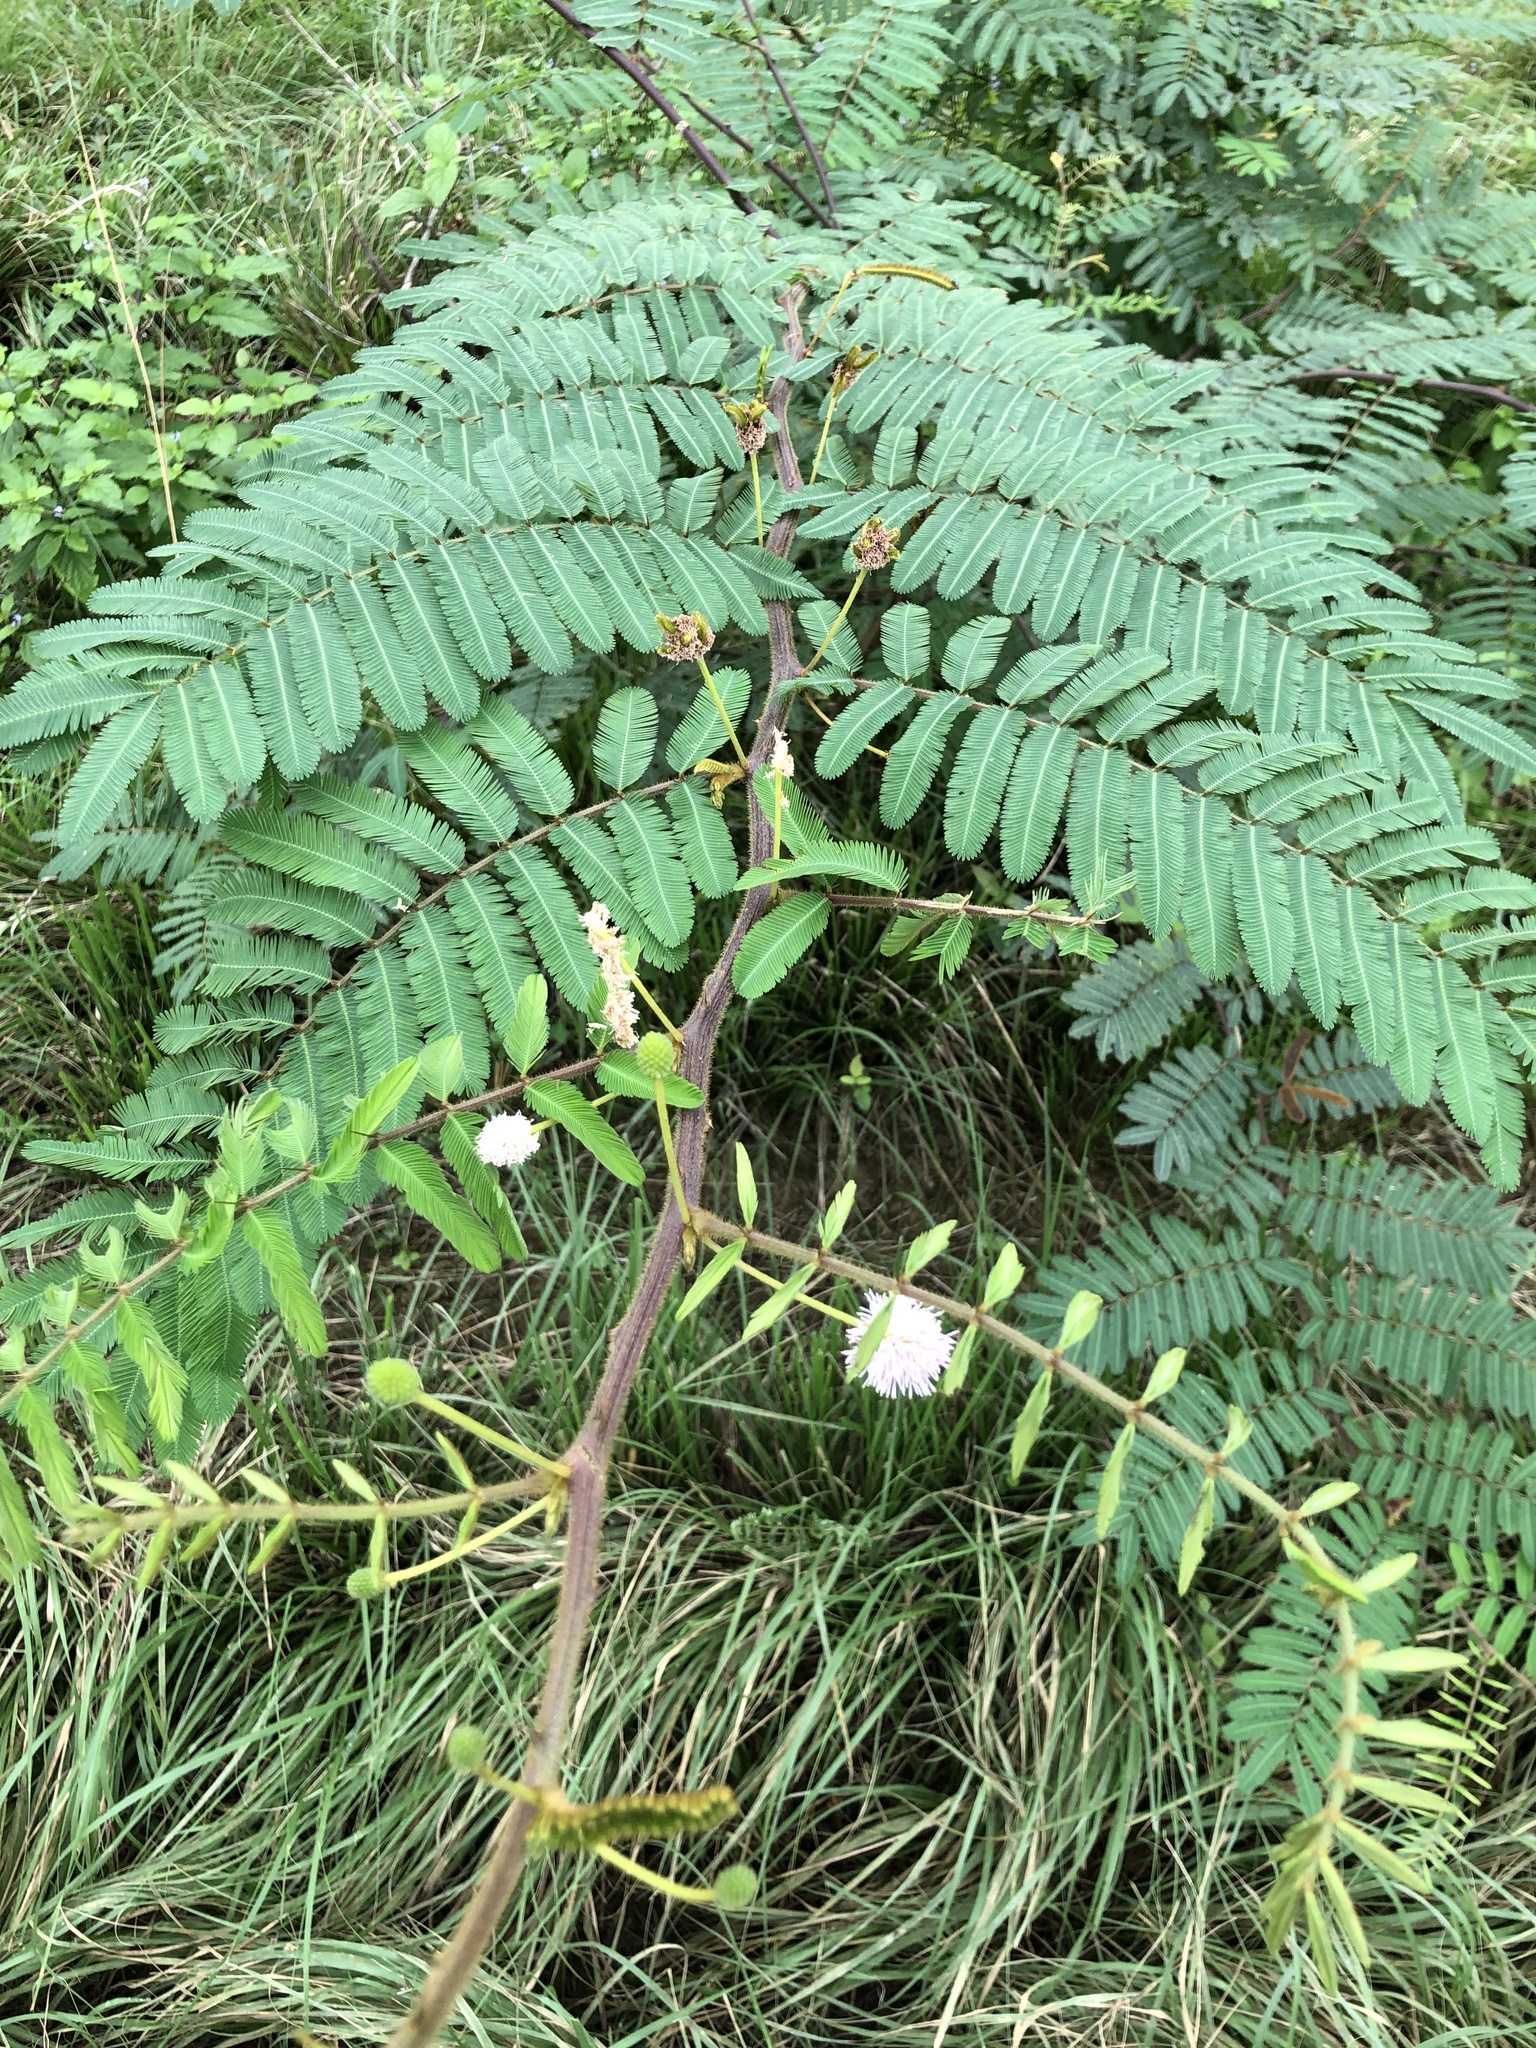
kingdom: Plantae
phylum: Tracheophyta
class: Magnoliopsida
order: Fabales
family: Fabaceae
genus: Mimosa
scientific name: Mimosa pigra
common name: Black mimosa
